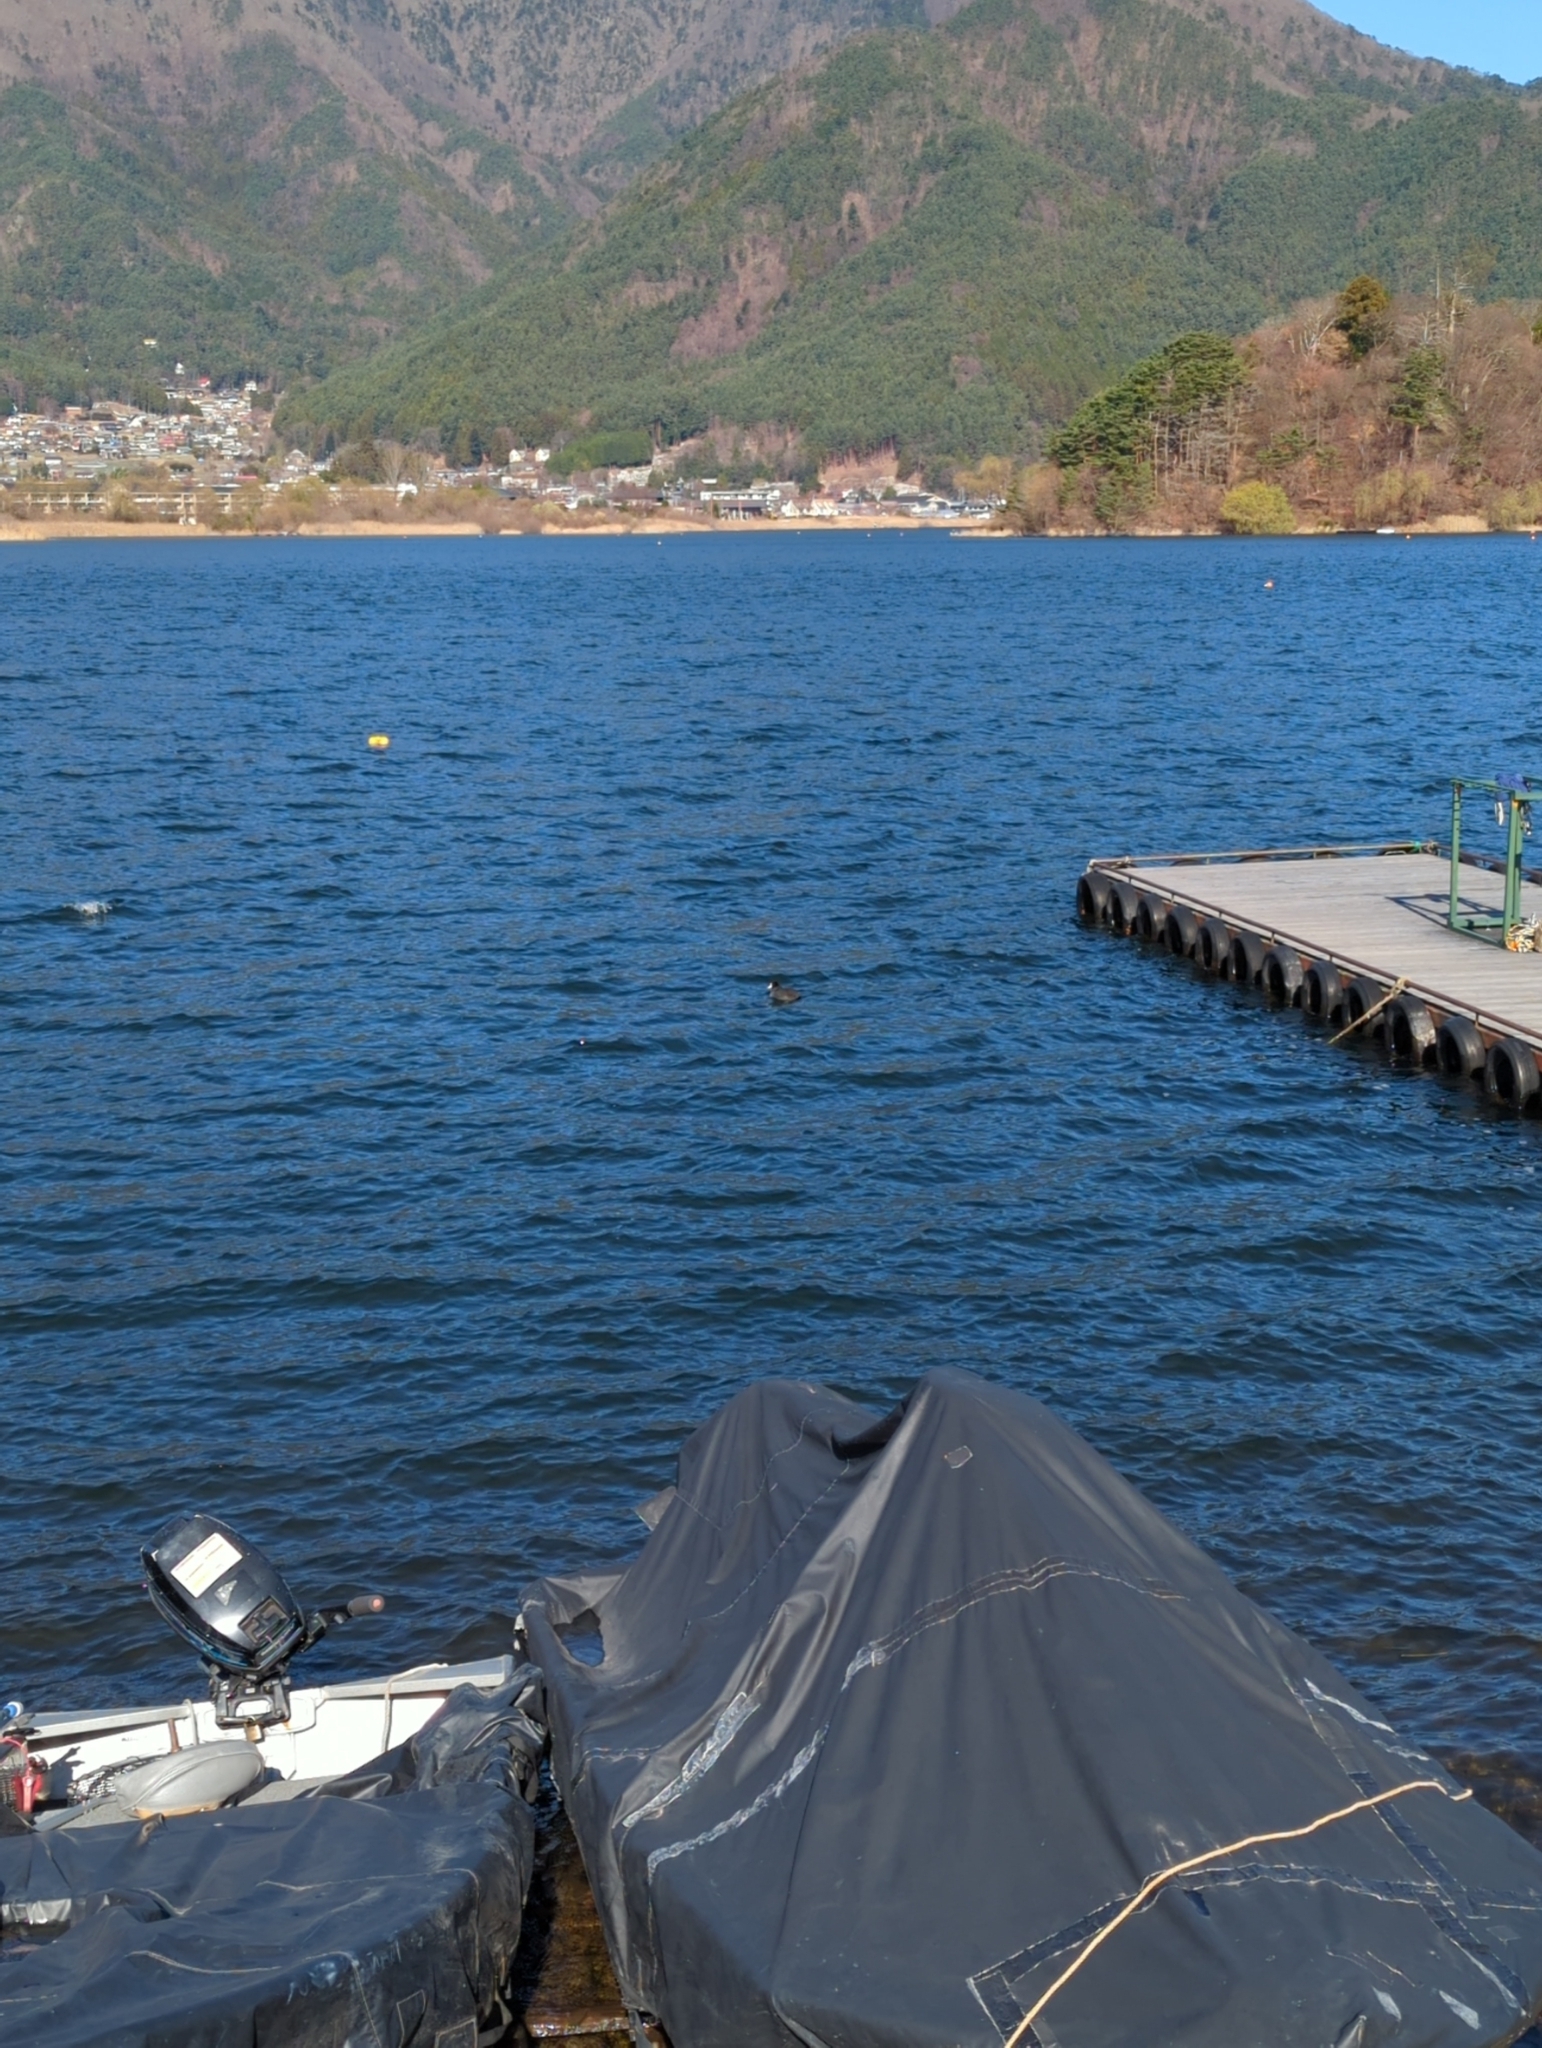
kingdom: Animalia
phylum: Chordata
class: Aves
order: Gruiformes
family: Rallidae
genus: Fulica
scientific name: Fulica atra
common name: Eurasian coot
